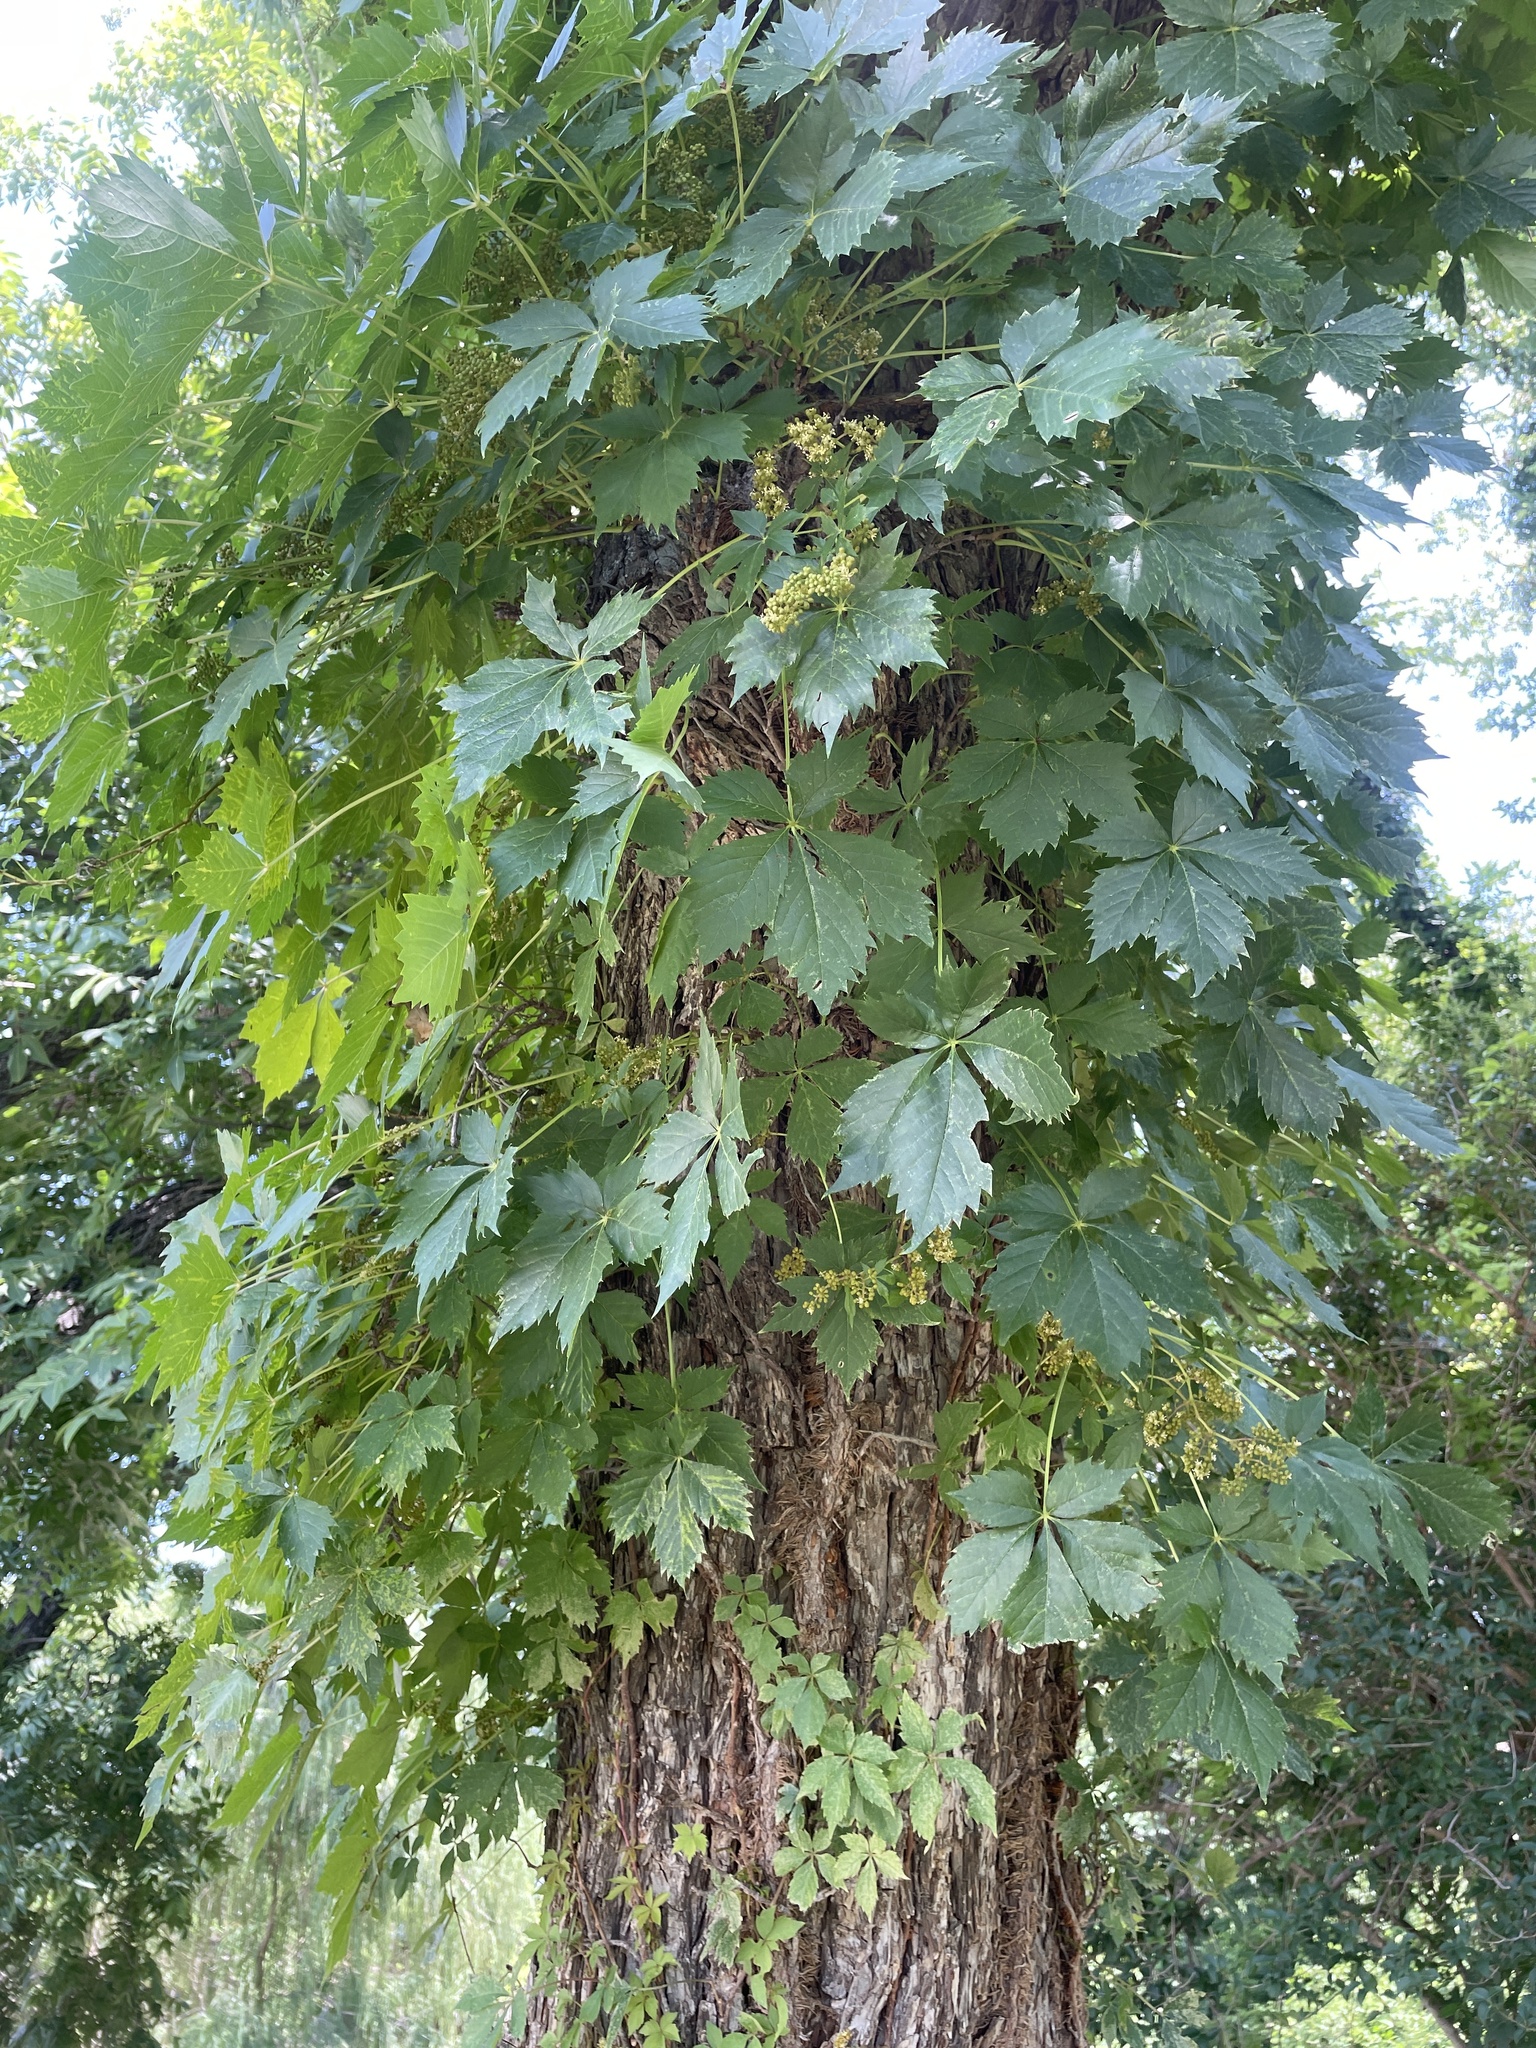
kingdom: Plantae
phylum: Tracheophyta
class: Magnoliopsida
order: Vitales
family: Vitaceae
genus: Parthenocissus
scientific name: Parthenocissus quinquefolia
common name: Virginia-creeper
